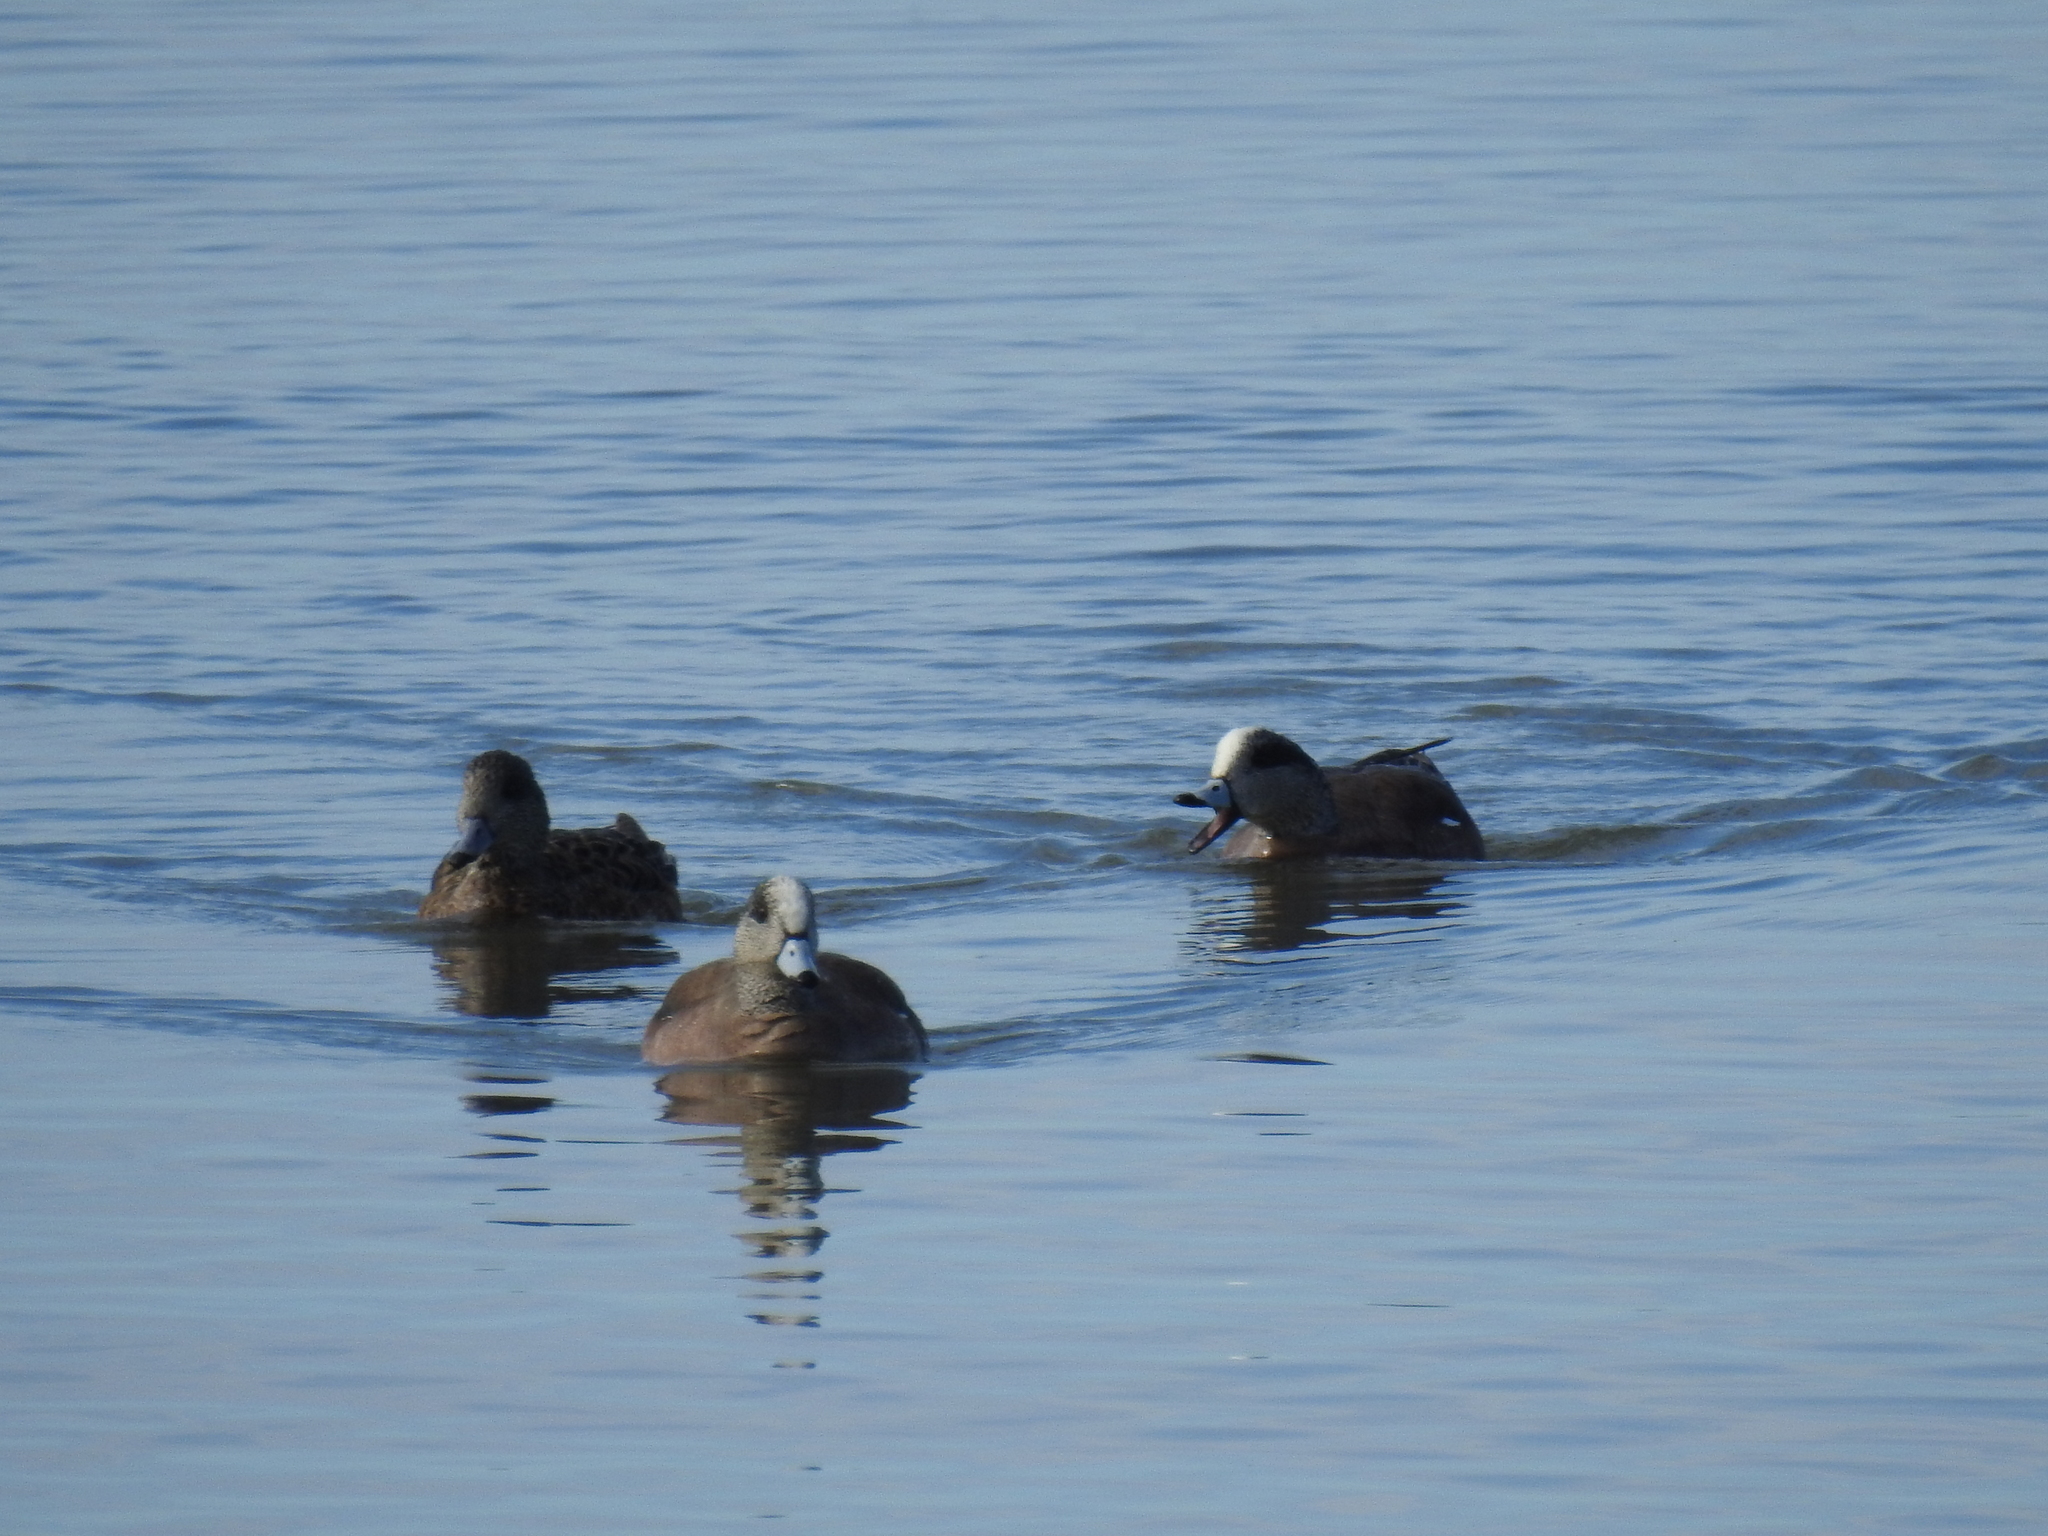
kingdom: Animalia
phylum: Chordata
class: Aves
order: Anseriformes
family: Anatidae
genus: Mareca
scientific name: Mareca americana
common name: American wigeon
